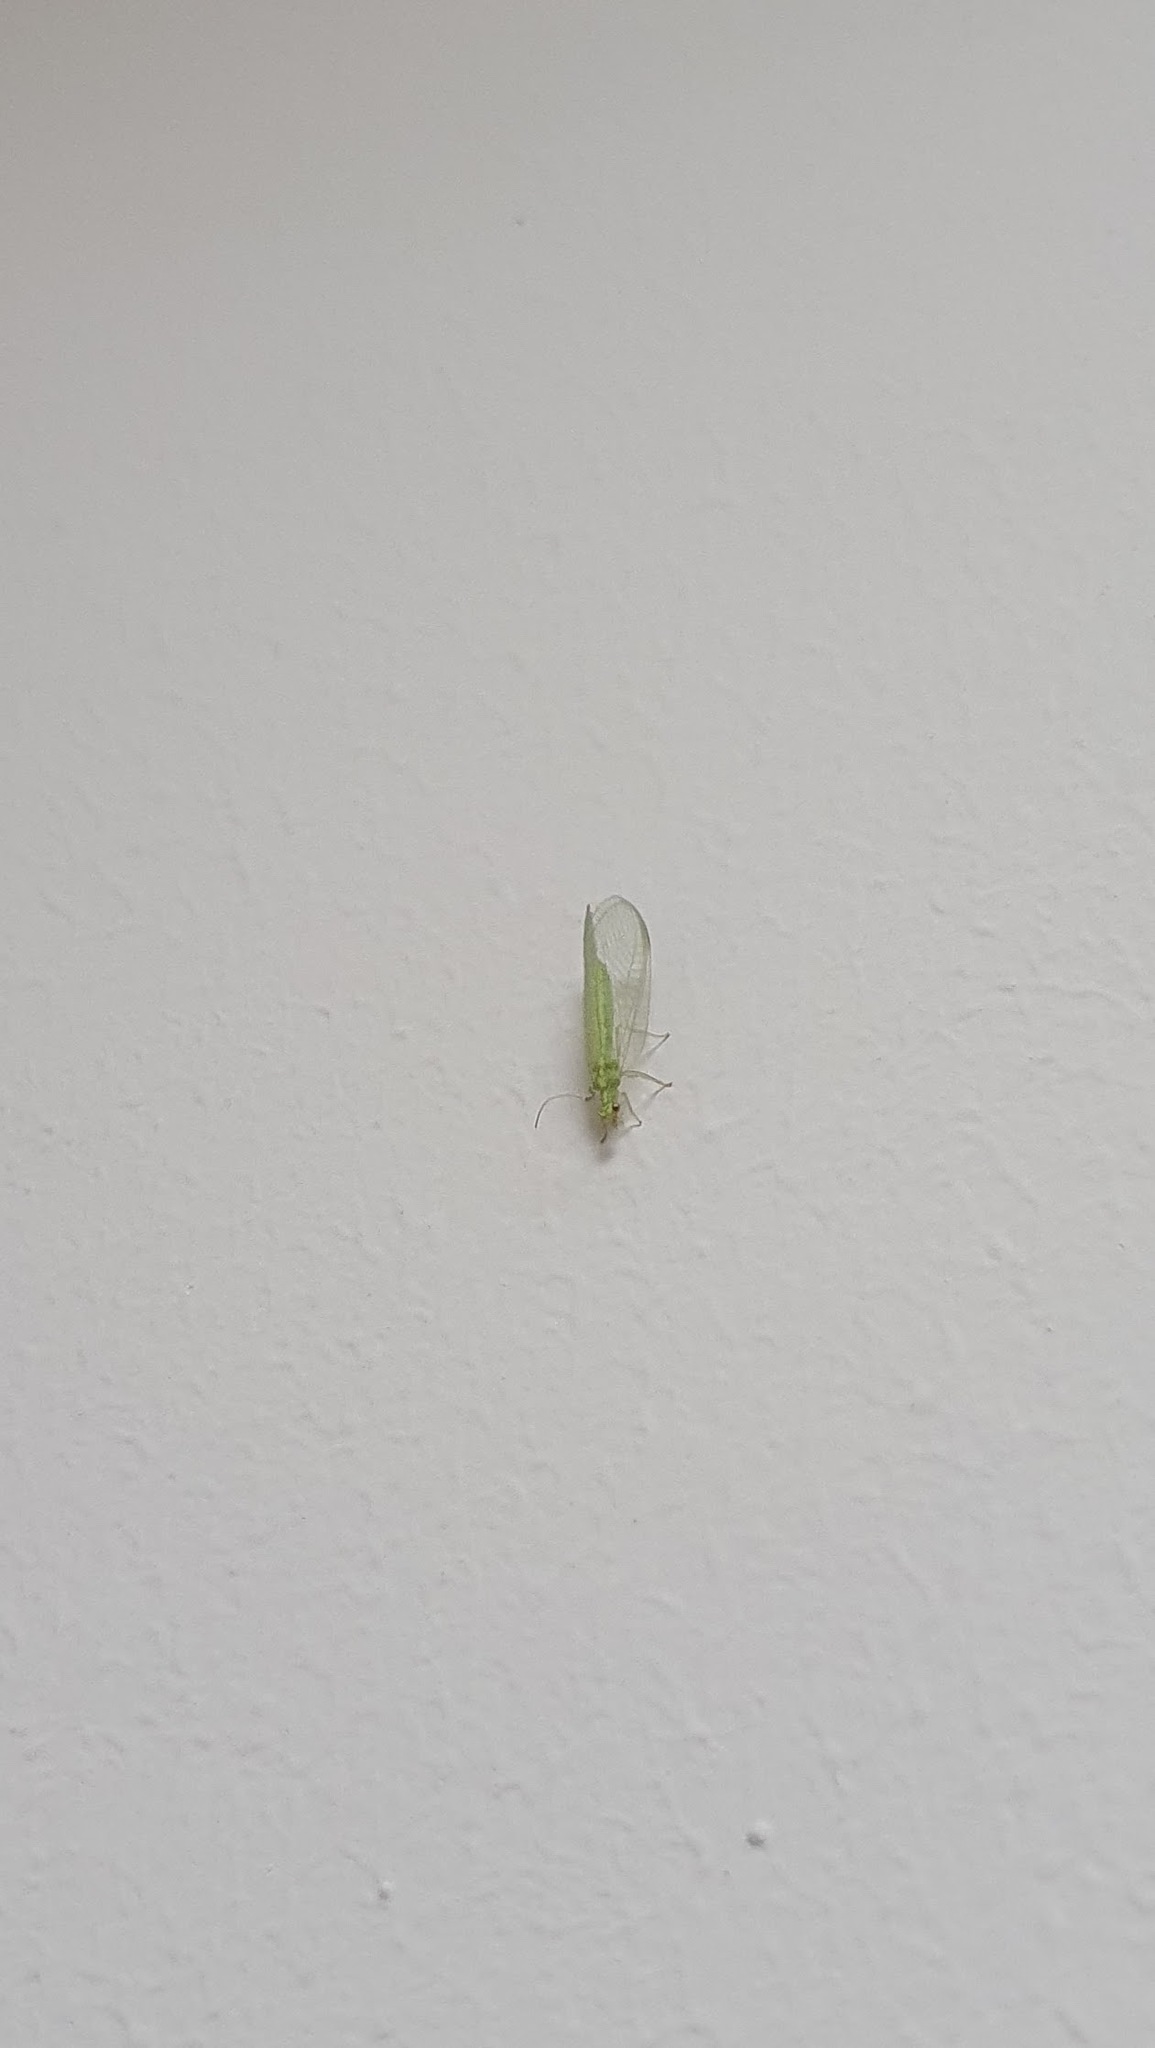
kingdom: Animalia
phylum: Arthropoda
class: Insecta
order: Neuroptera
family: Chrysopidae
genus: Chrysoperla
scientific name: Chrysoperla
